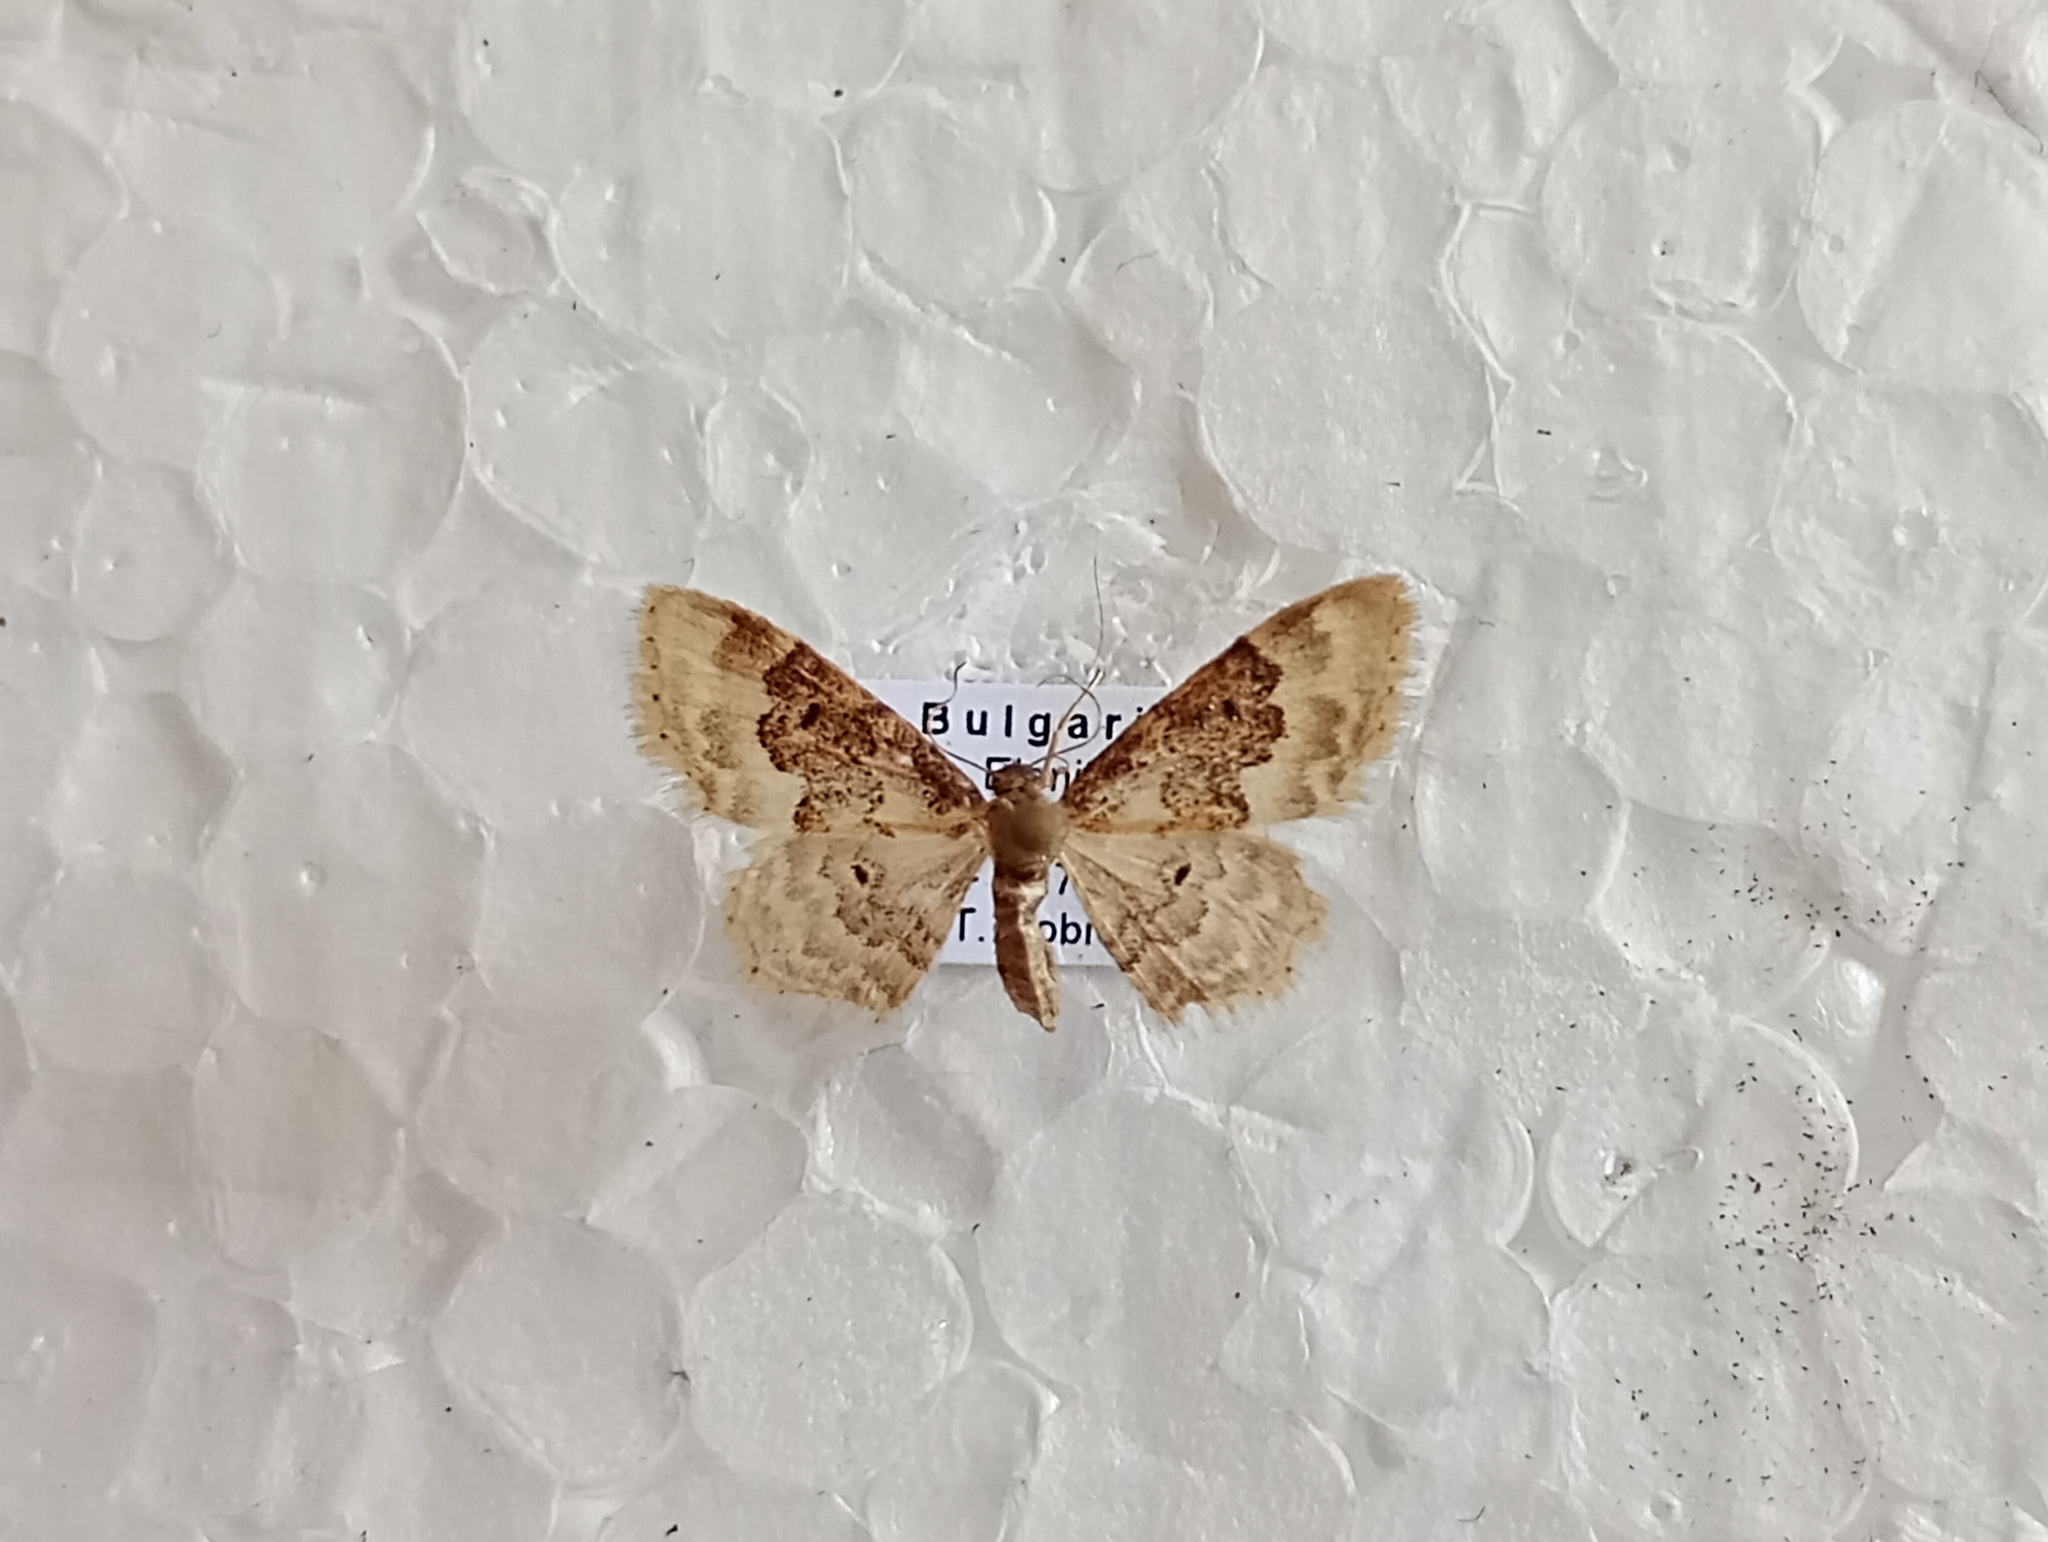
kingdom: Animalia
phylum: Arthropoda
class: Insecta
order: Lepidoptera
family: Geometridae
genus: Idaea
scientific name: Idaea rusticata
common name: Least carpet
